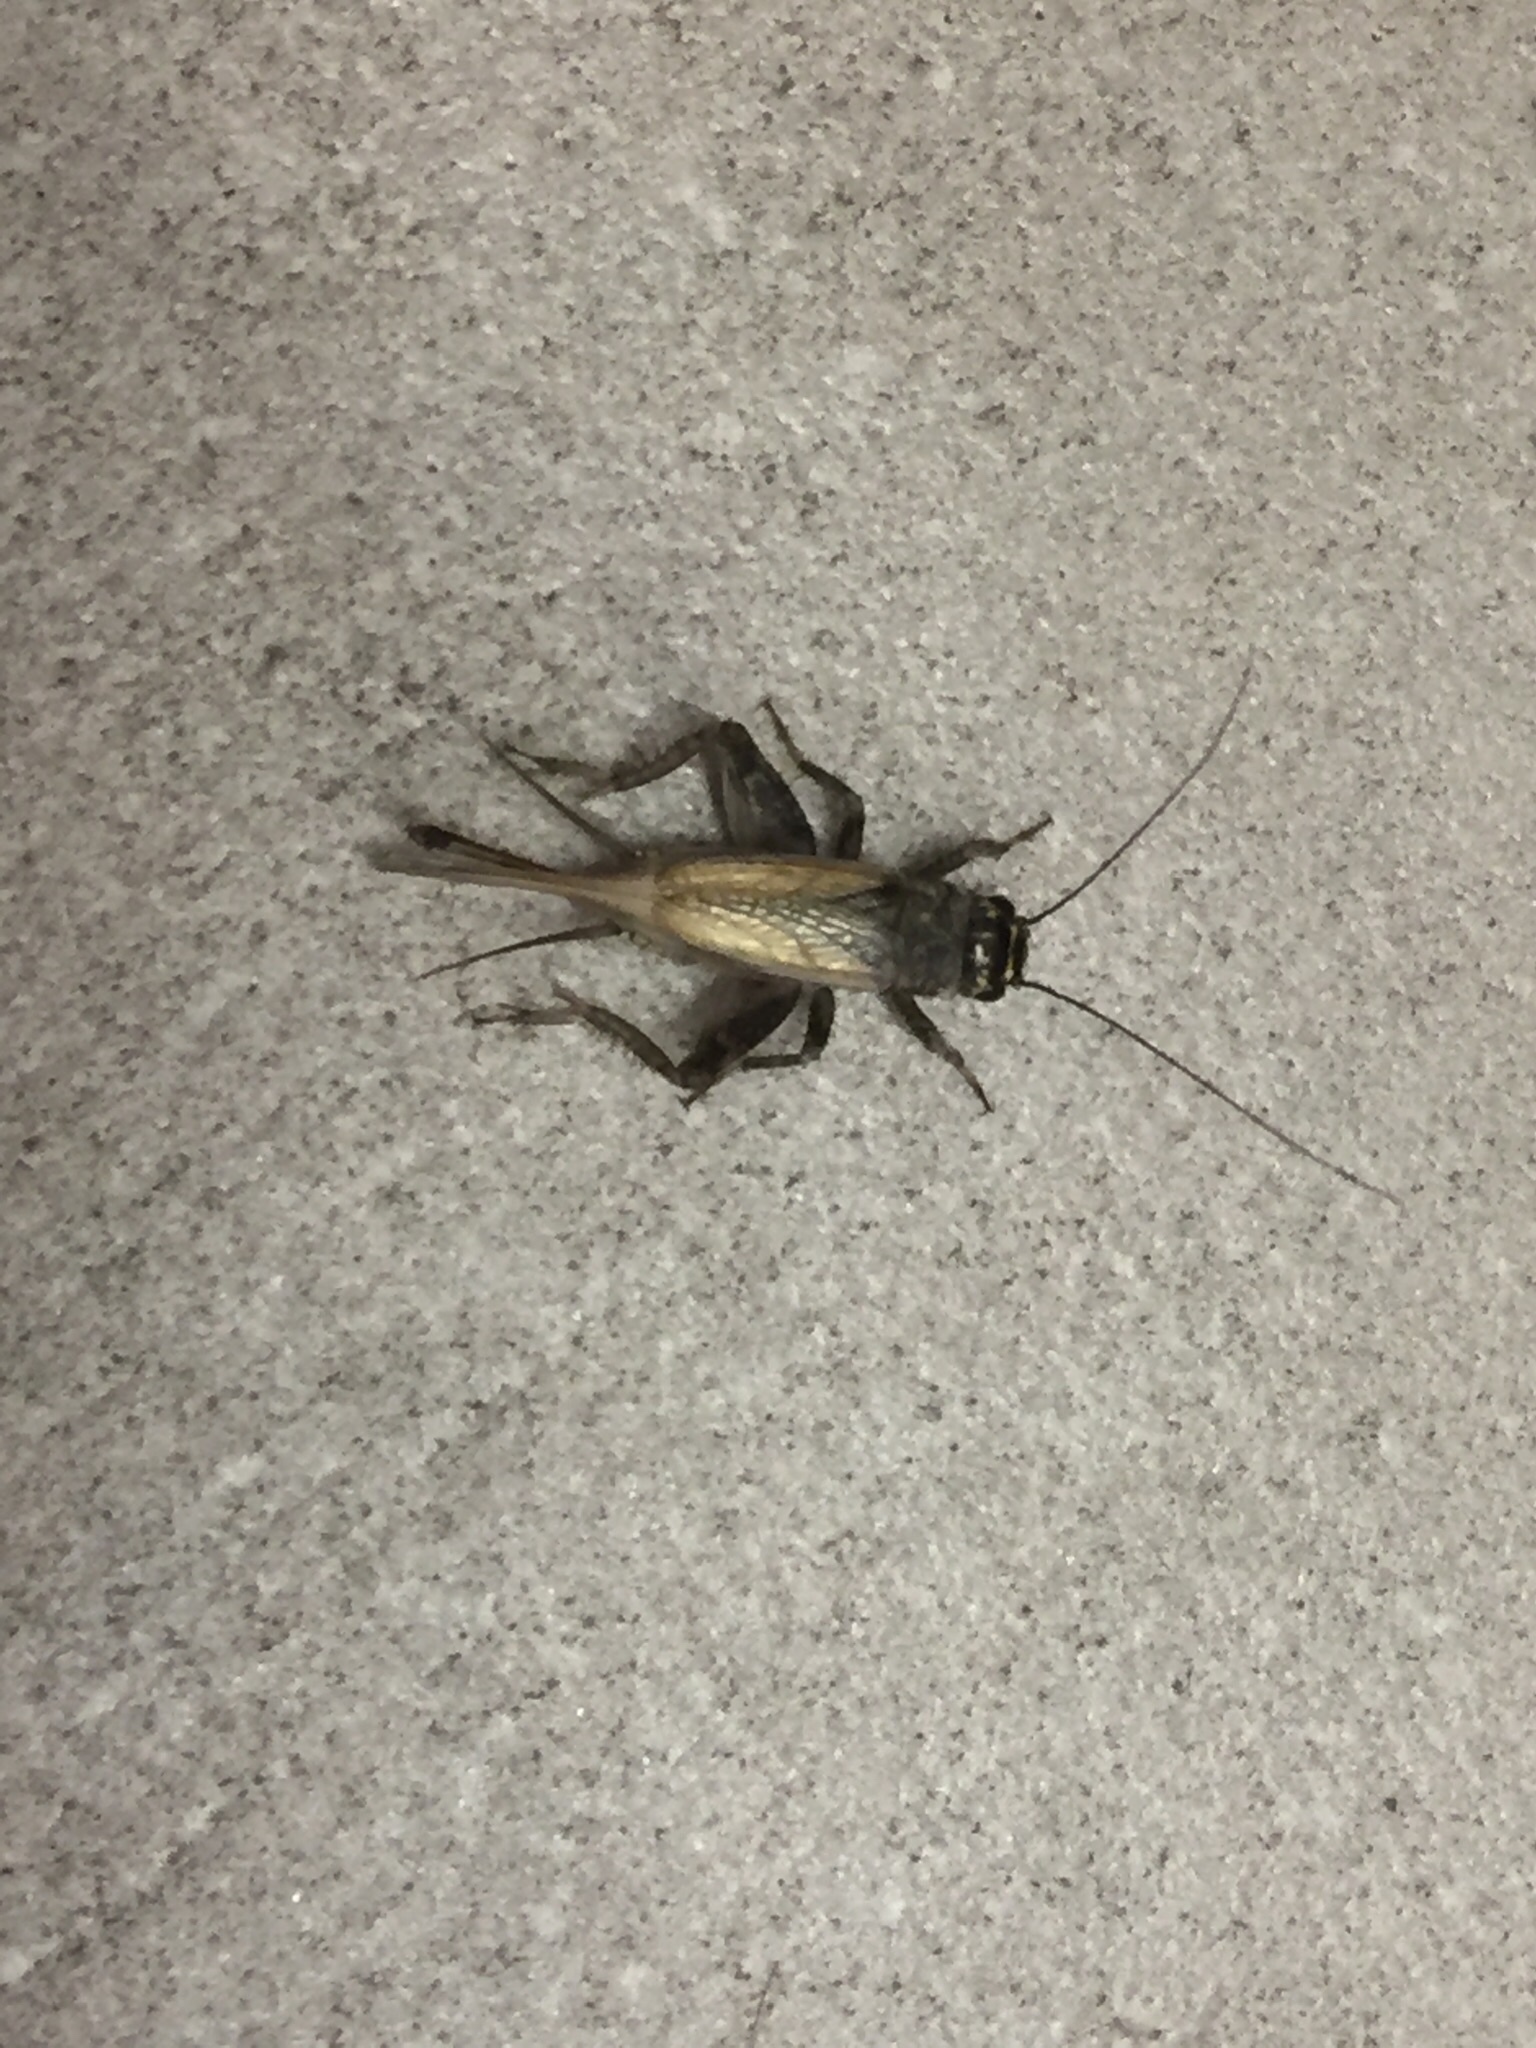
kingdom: Animalia
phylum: Arthropoda
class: Insecta
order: Orthoptera
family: Gryllidae
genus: Eumodicogryllus
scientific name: Eumodicogryllus bordigalensis
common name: Bordeaux cricket
